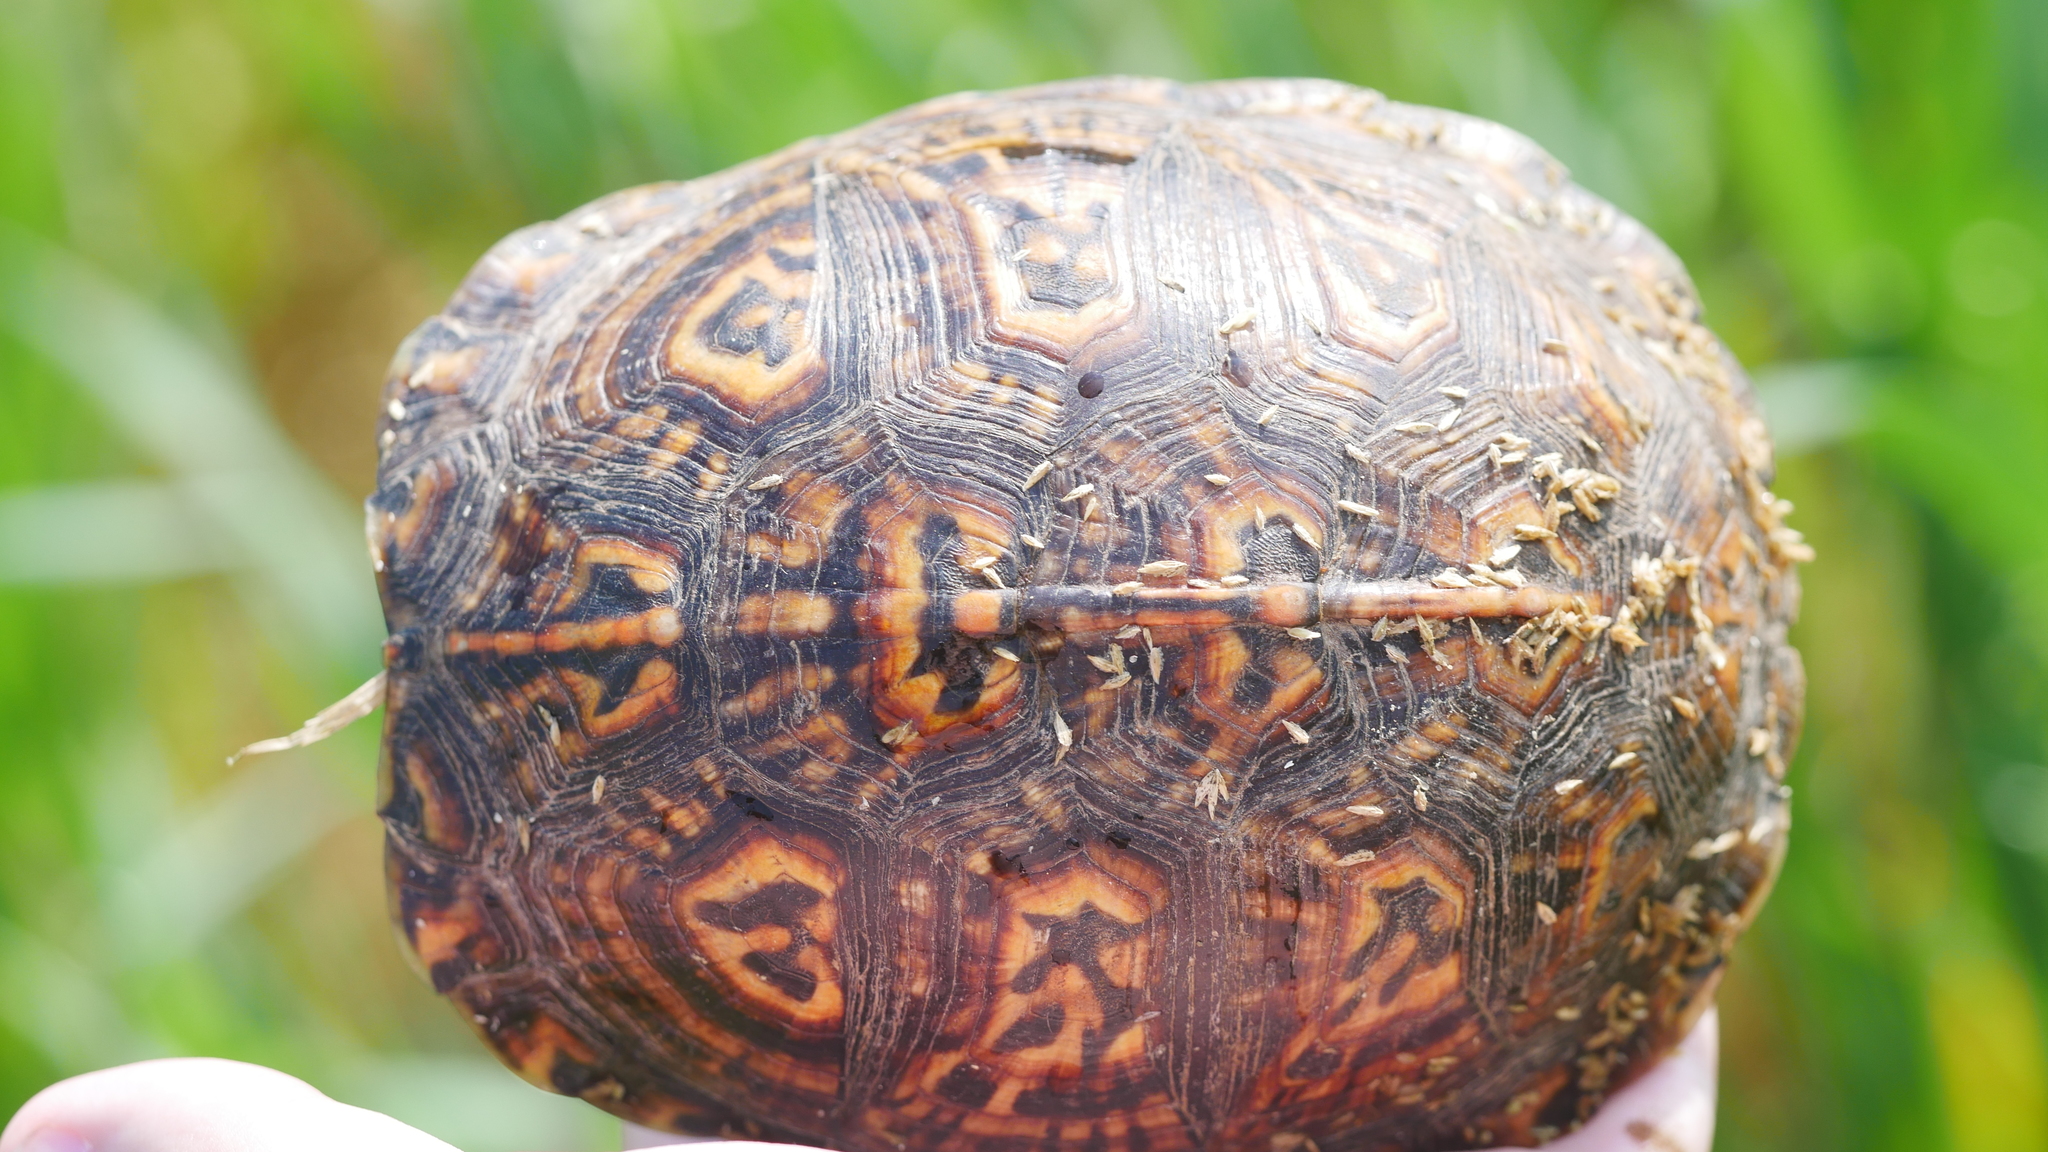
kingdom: Animalia
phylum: Chordata
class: Testudines
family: Emydidae
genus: Terrapene
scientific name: Terrapene carolina
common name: Common box turtle
